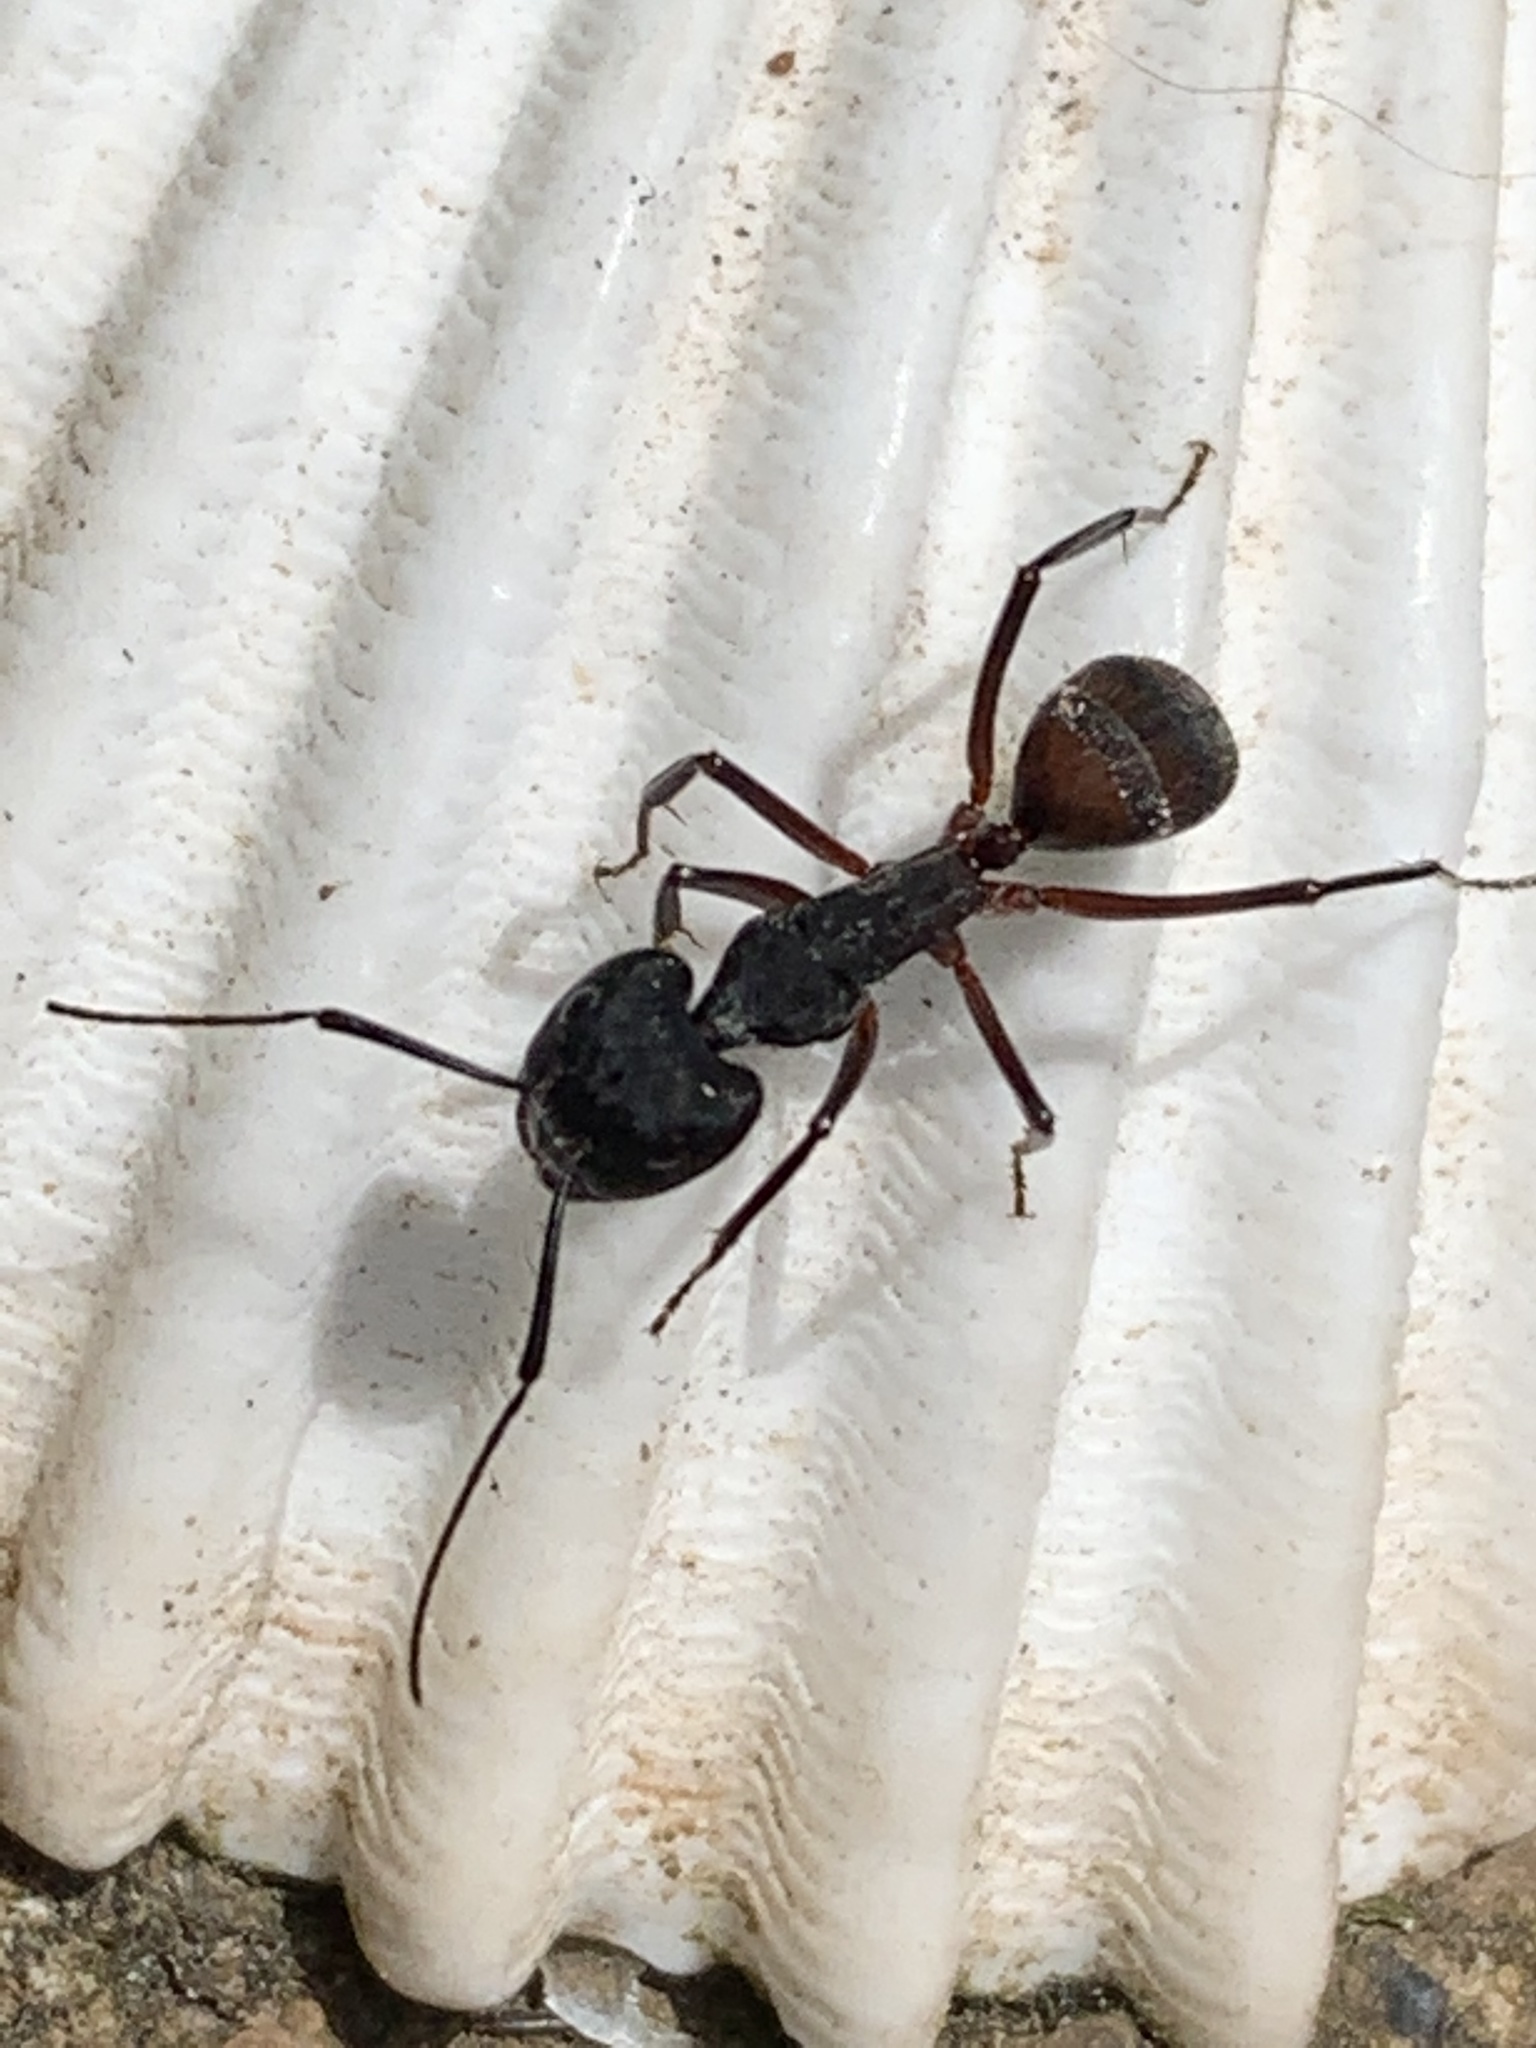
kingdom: Animalia
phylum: Arthropoda
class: Insecta
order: Hymenoptera
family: Formicidae
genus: Camponotus
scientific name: Camponotus cruentatus
